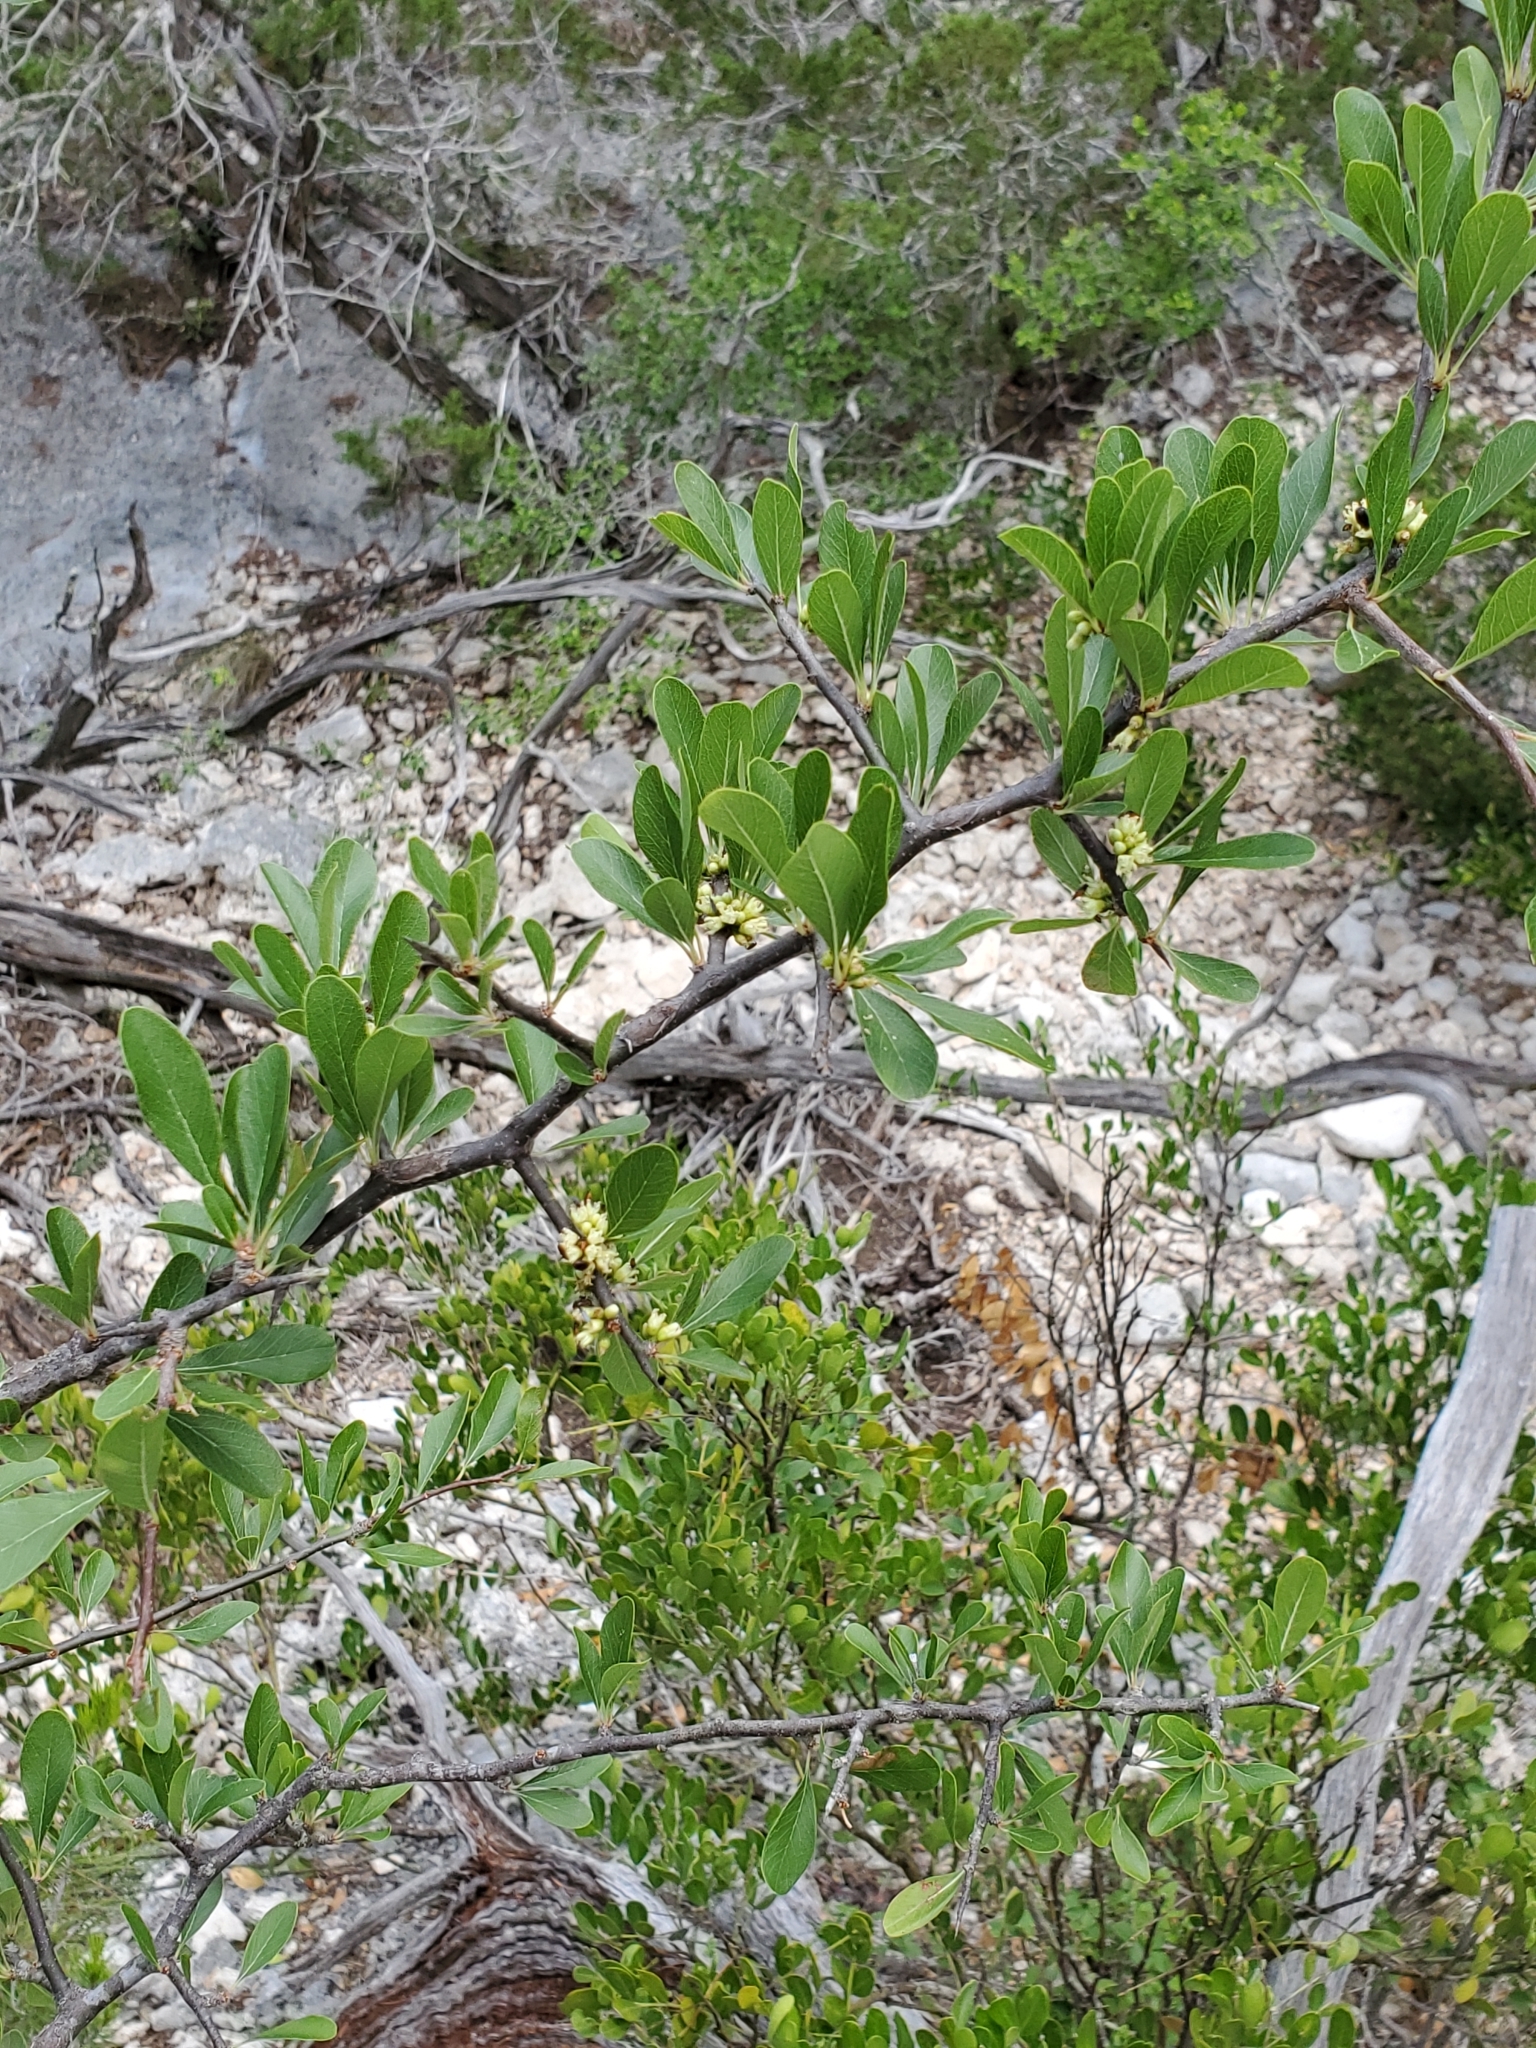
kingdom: Plantae
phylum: Tracheophyta
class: Magnoliopsida
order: Ericales
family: Sapotaceae
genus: Sideroxylon
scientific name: Sideroxylon lanuginosum
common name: Chittamwood
